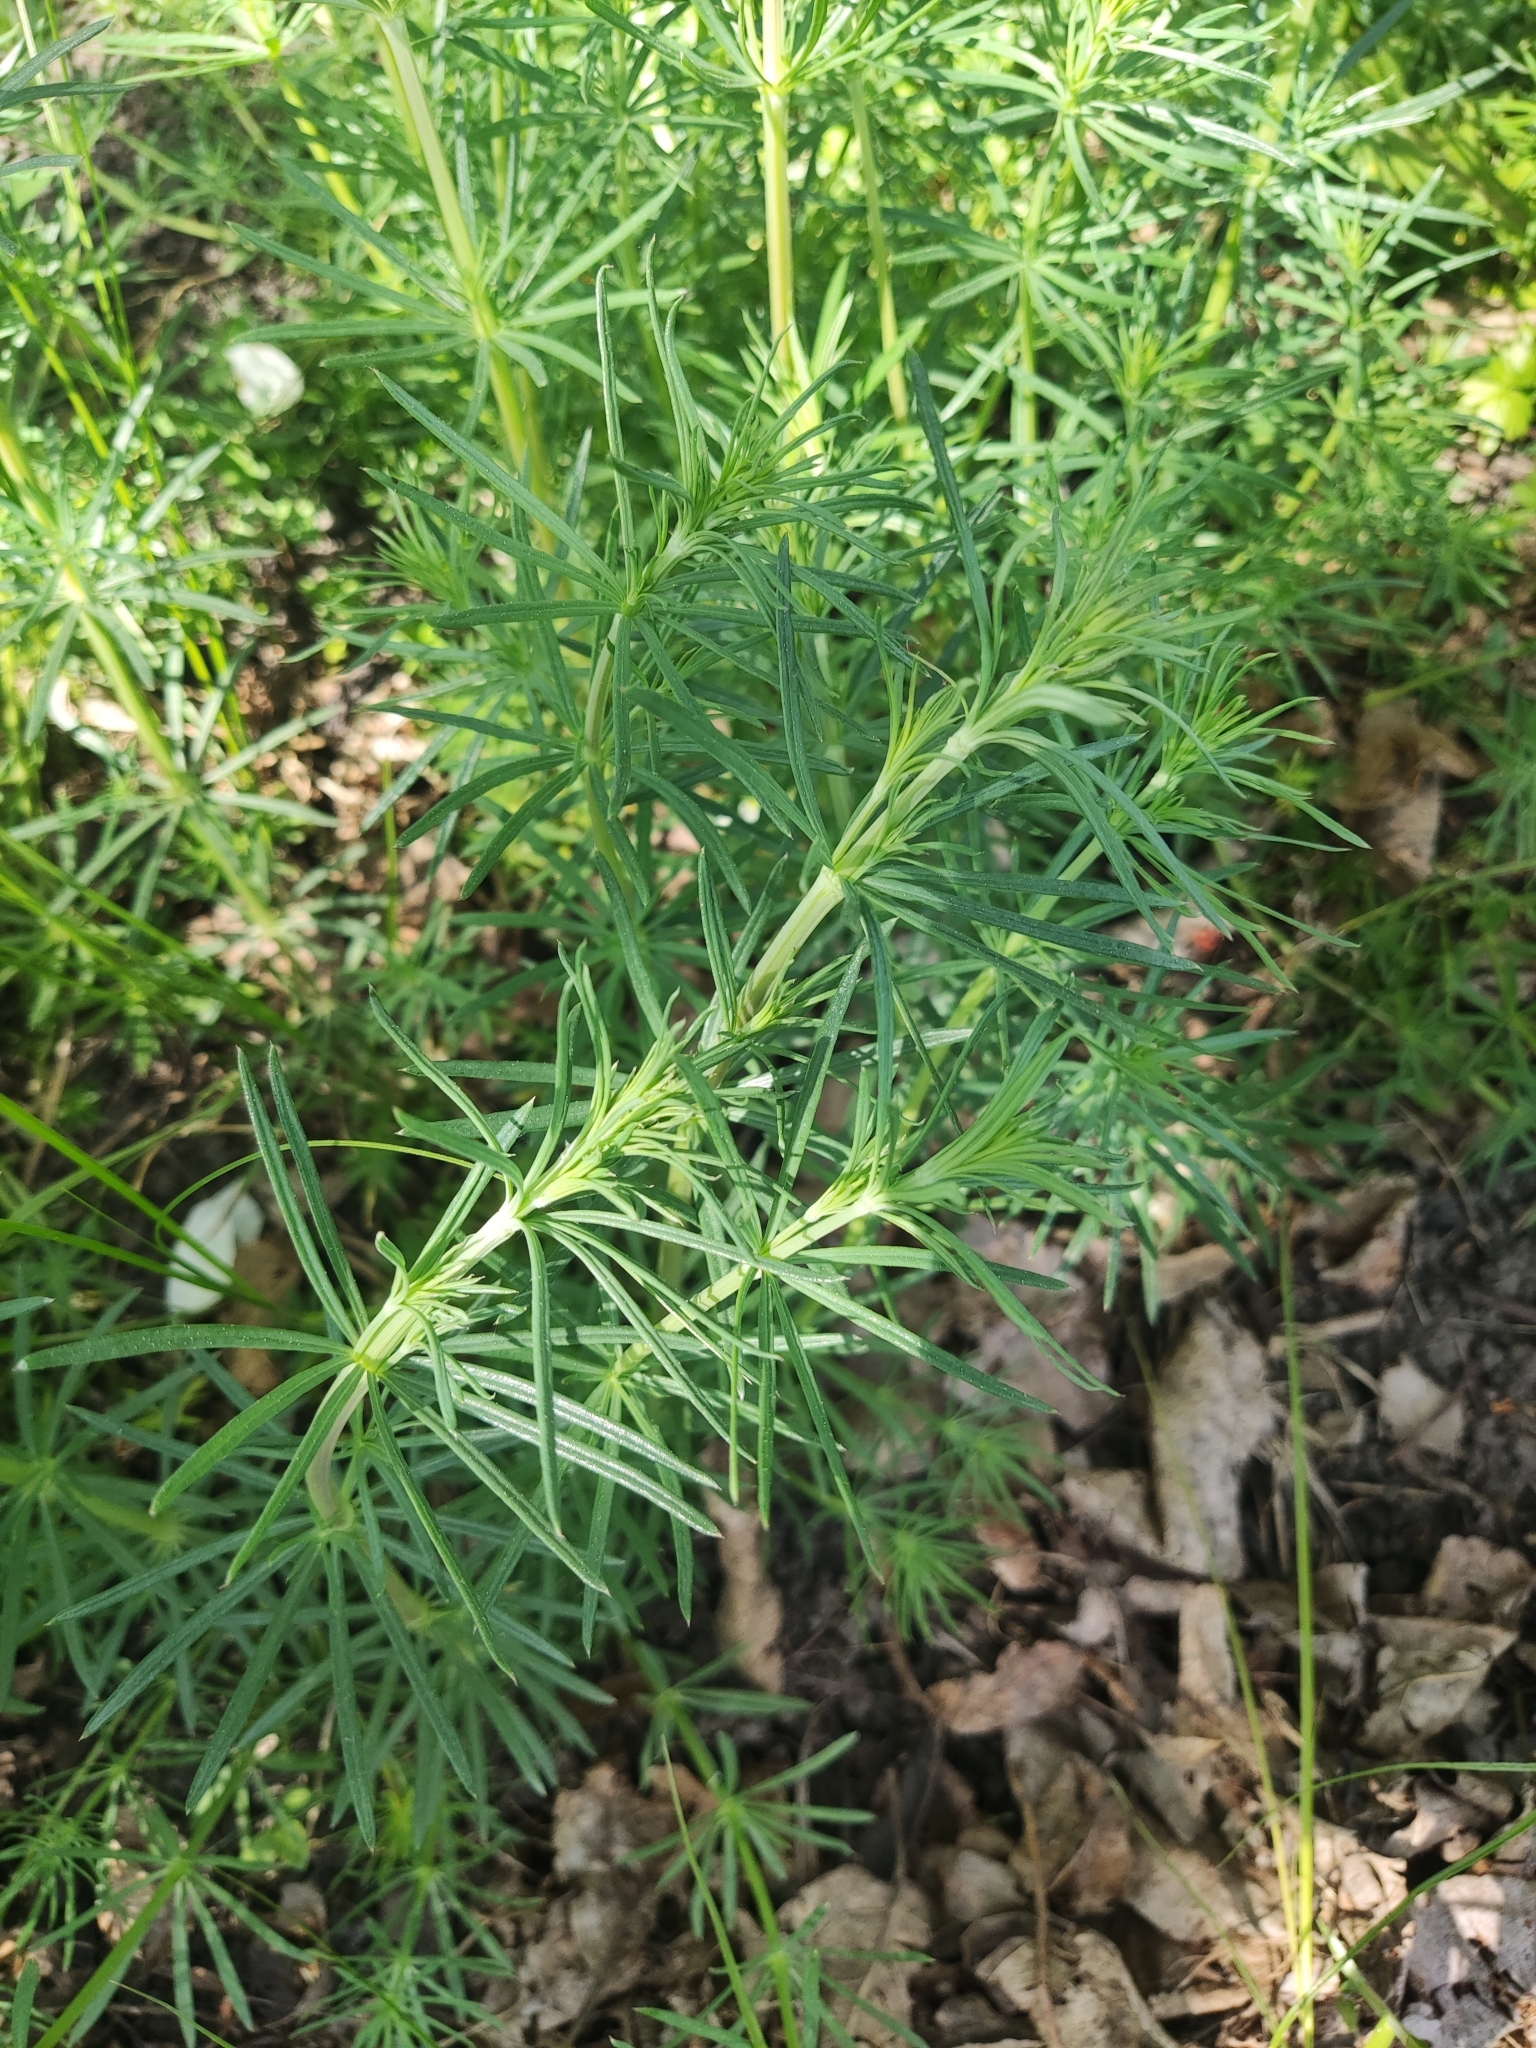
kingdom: Plantae
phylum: Tracheophyta
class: Magnoliopsida
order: Gentianales
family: Rubiaceae
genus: Galium
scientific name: Galium verum
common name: Lady's bedstraw
